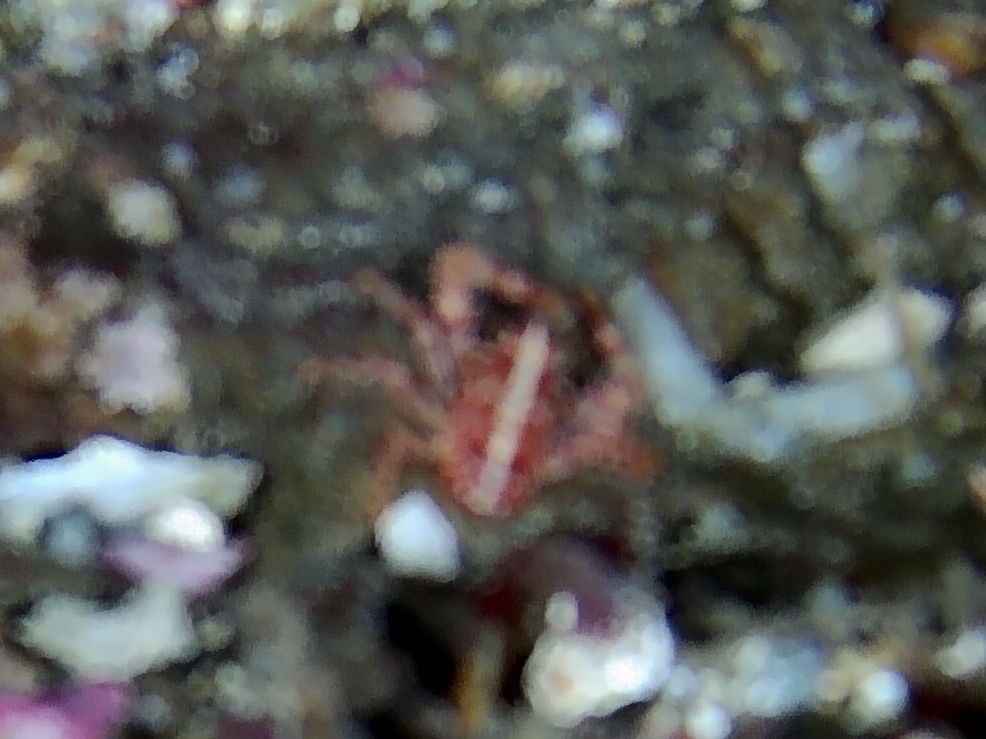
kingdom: Animalia
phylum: Arthropoda
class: Malacostraca
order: Decapoda
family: Galatheidae
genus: Galathea
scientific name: Galathea intermedia
